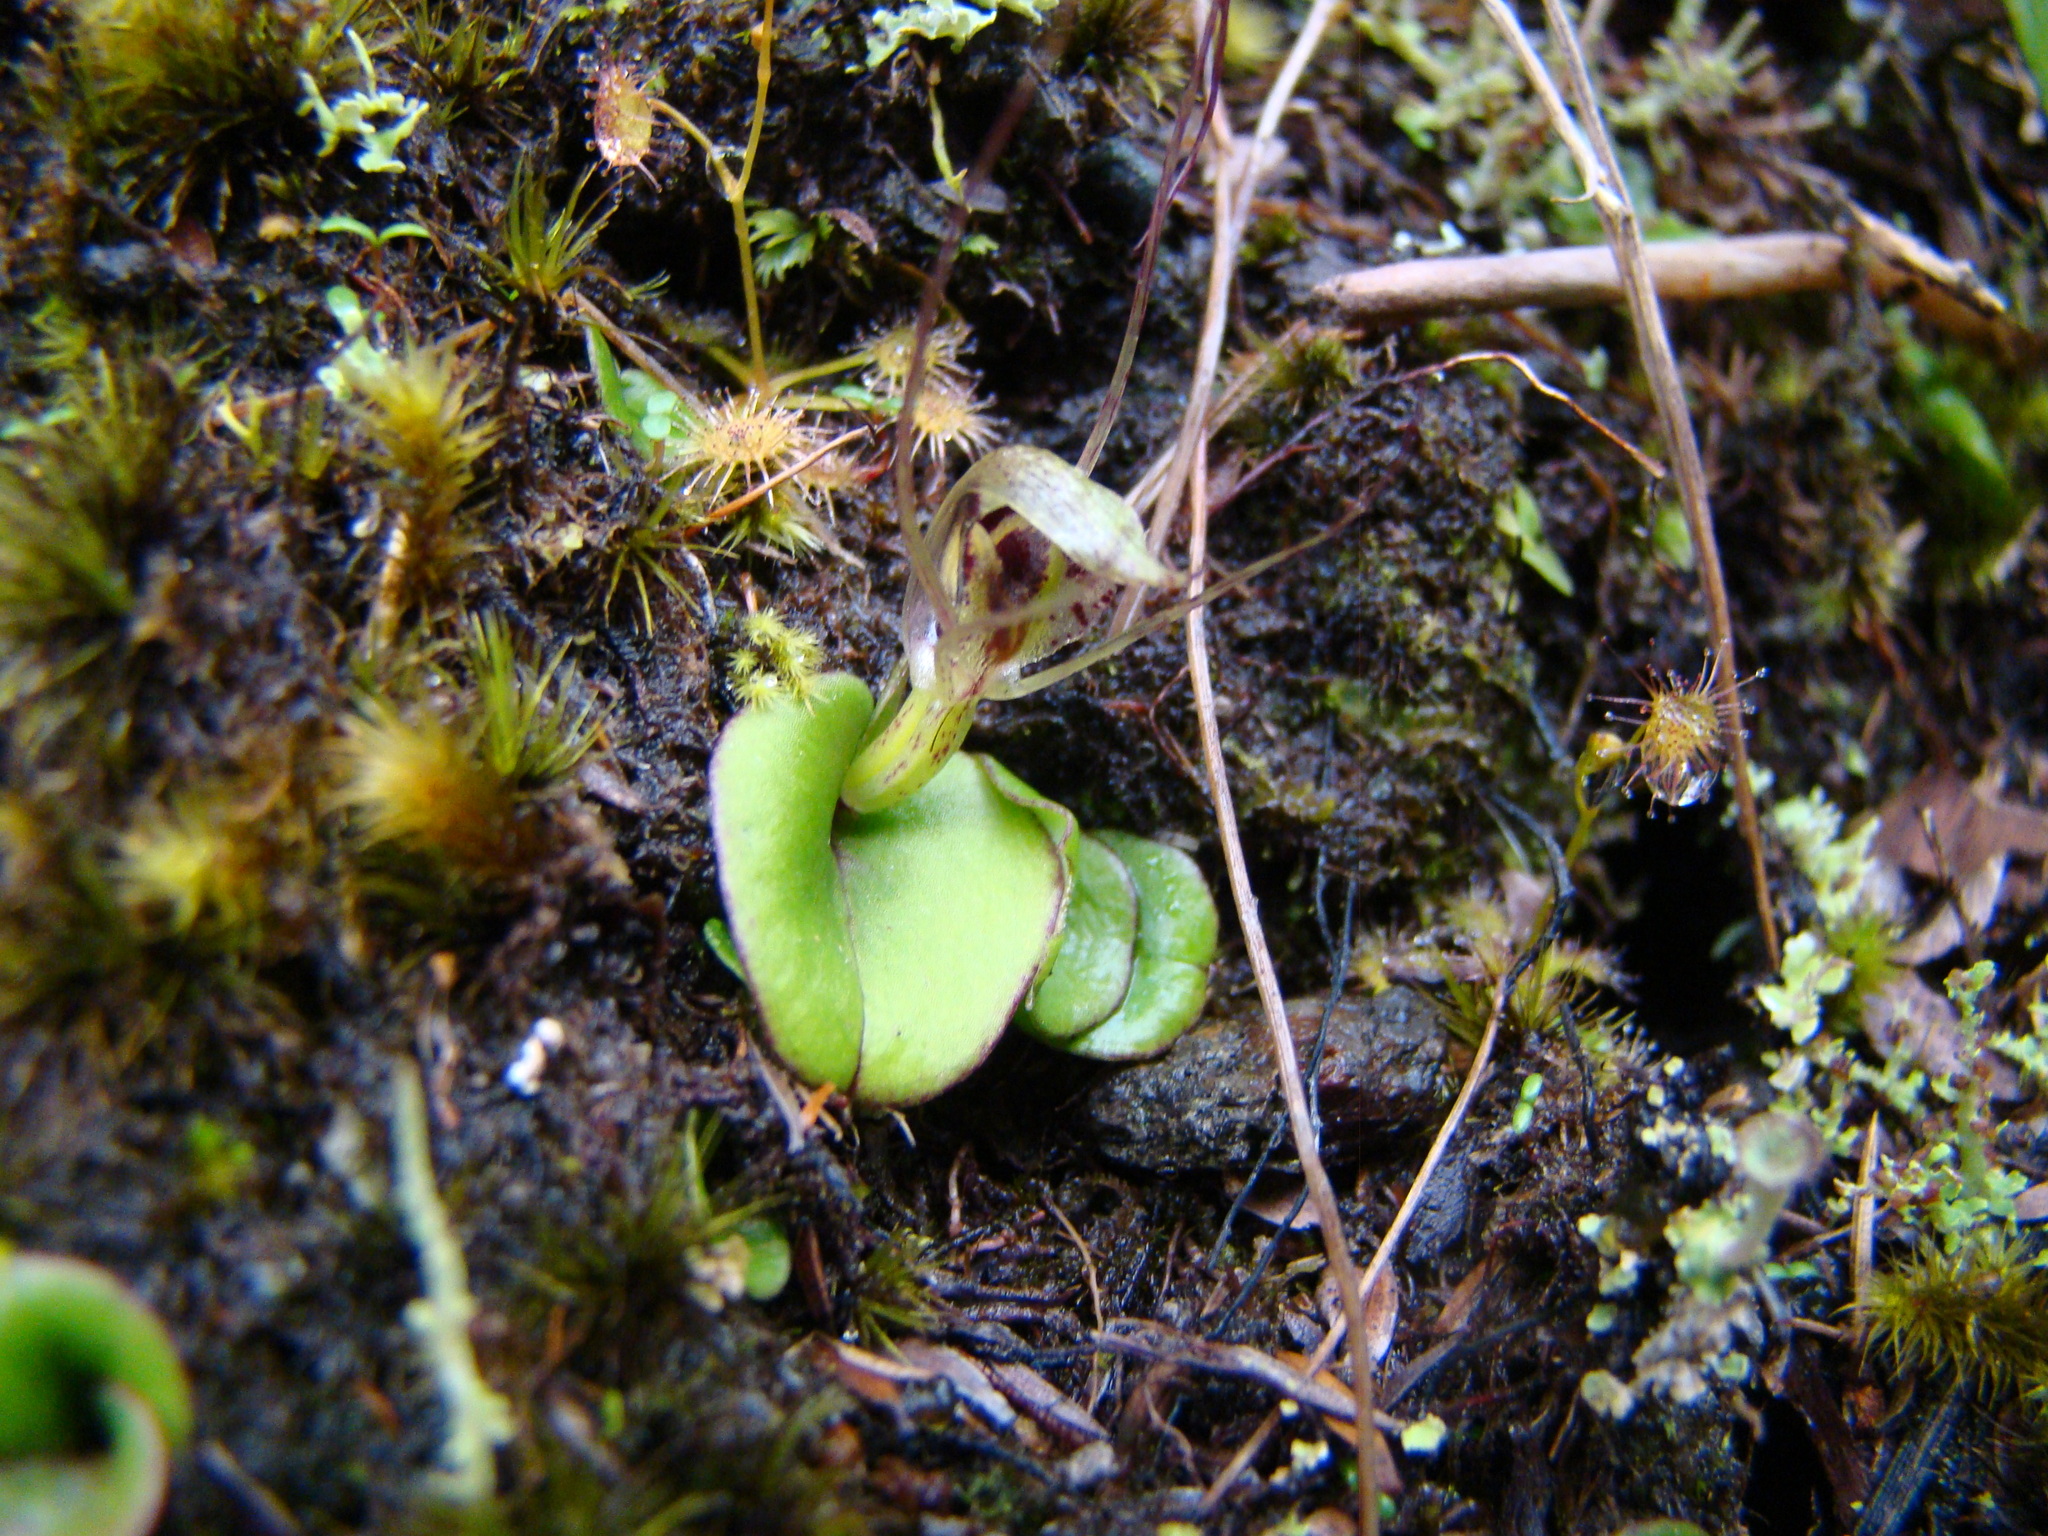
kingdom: Plantae
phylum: Tracheophyta
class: Liliopsida
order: Asparagales
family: Orchidaceae
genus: Corybas
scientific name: Corybas dienemus
